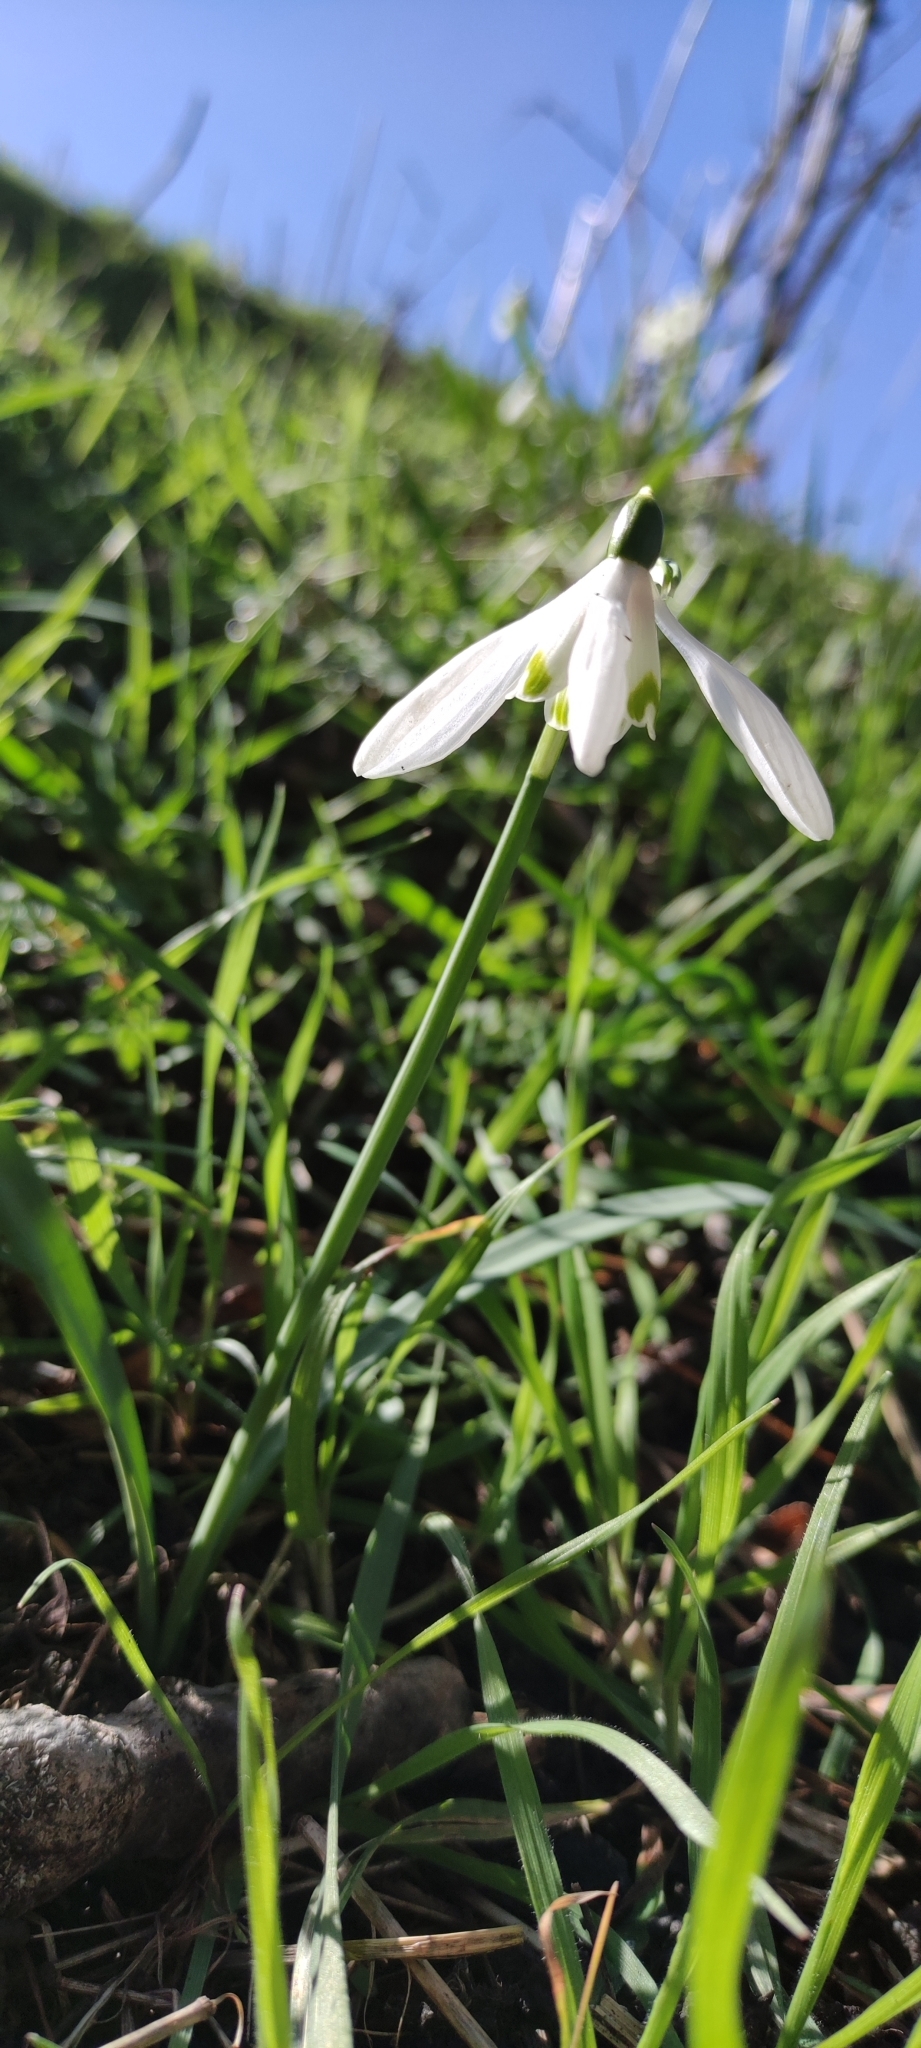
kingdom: Plantae
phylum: Tracheophyta
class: Liliopsida
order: Asparagales
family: Amaryllidaceae
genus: Galanthus
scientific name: Galanthus nivalis
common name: Snowdrop
